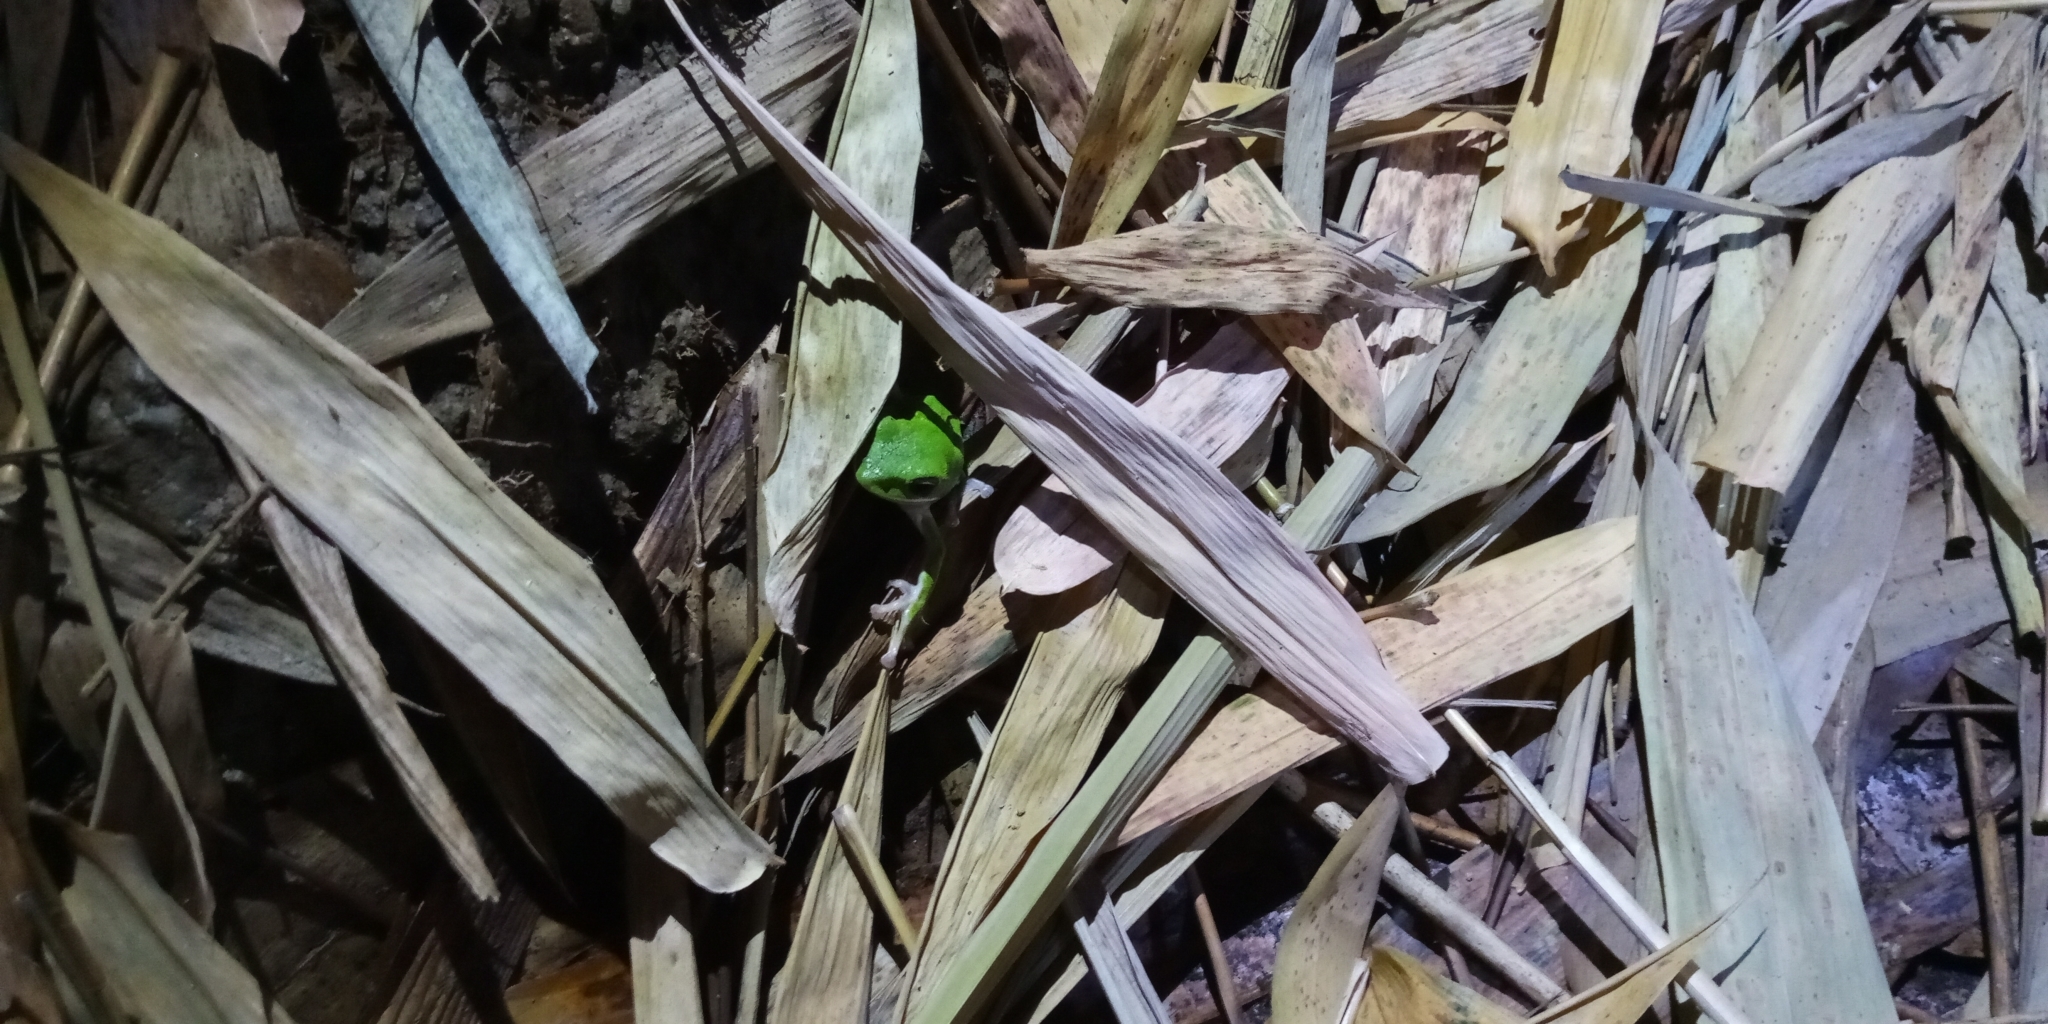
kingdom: Animalia
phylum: Chordata
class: Amphibia
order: Anura
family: Rhacophoridae
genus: Zhangixalus
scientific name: Zhangixalus arvalis
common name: Farmland green treefrog
